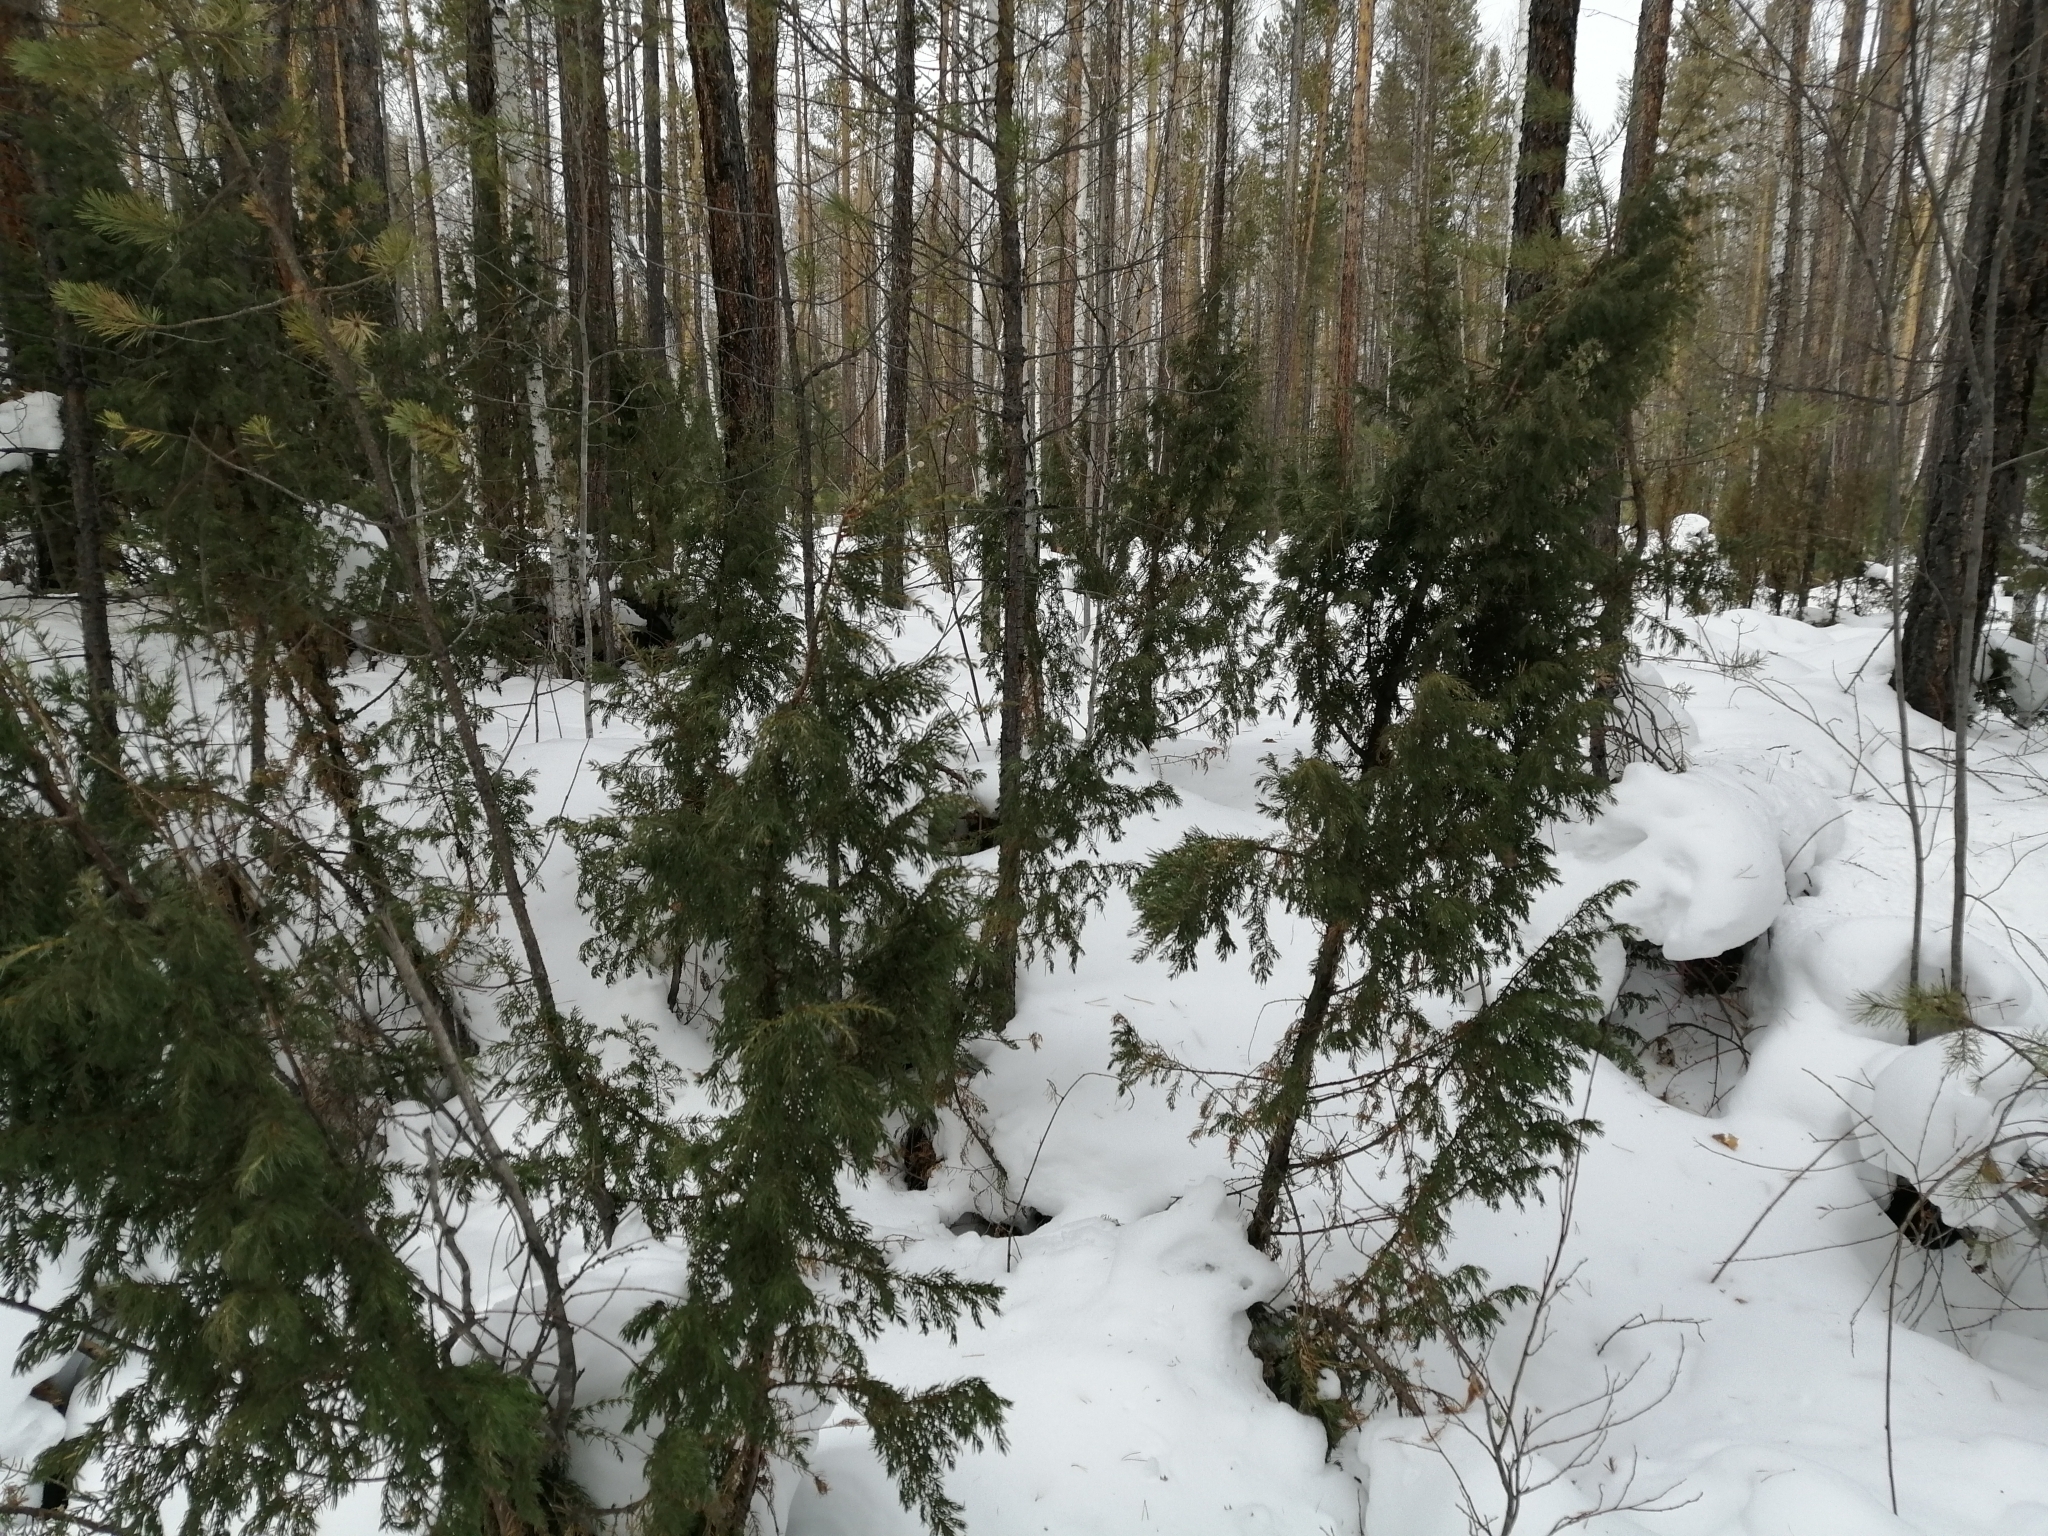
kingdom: Plantae
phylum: Tracheophyta
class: Pinopsida
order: Pinales
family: Cupressaceae
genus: Juniperus
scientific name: Juniperus communis
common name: Common juniper
